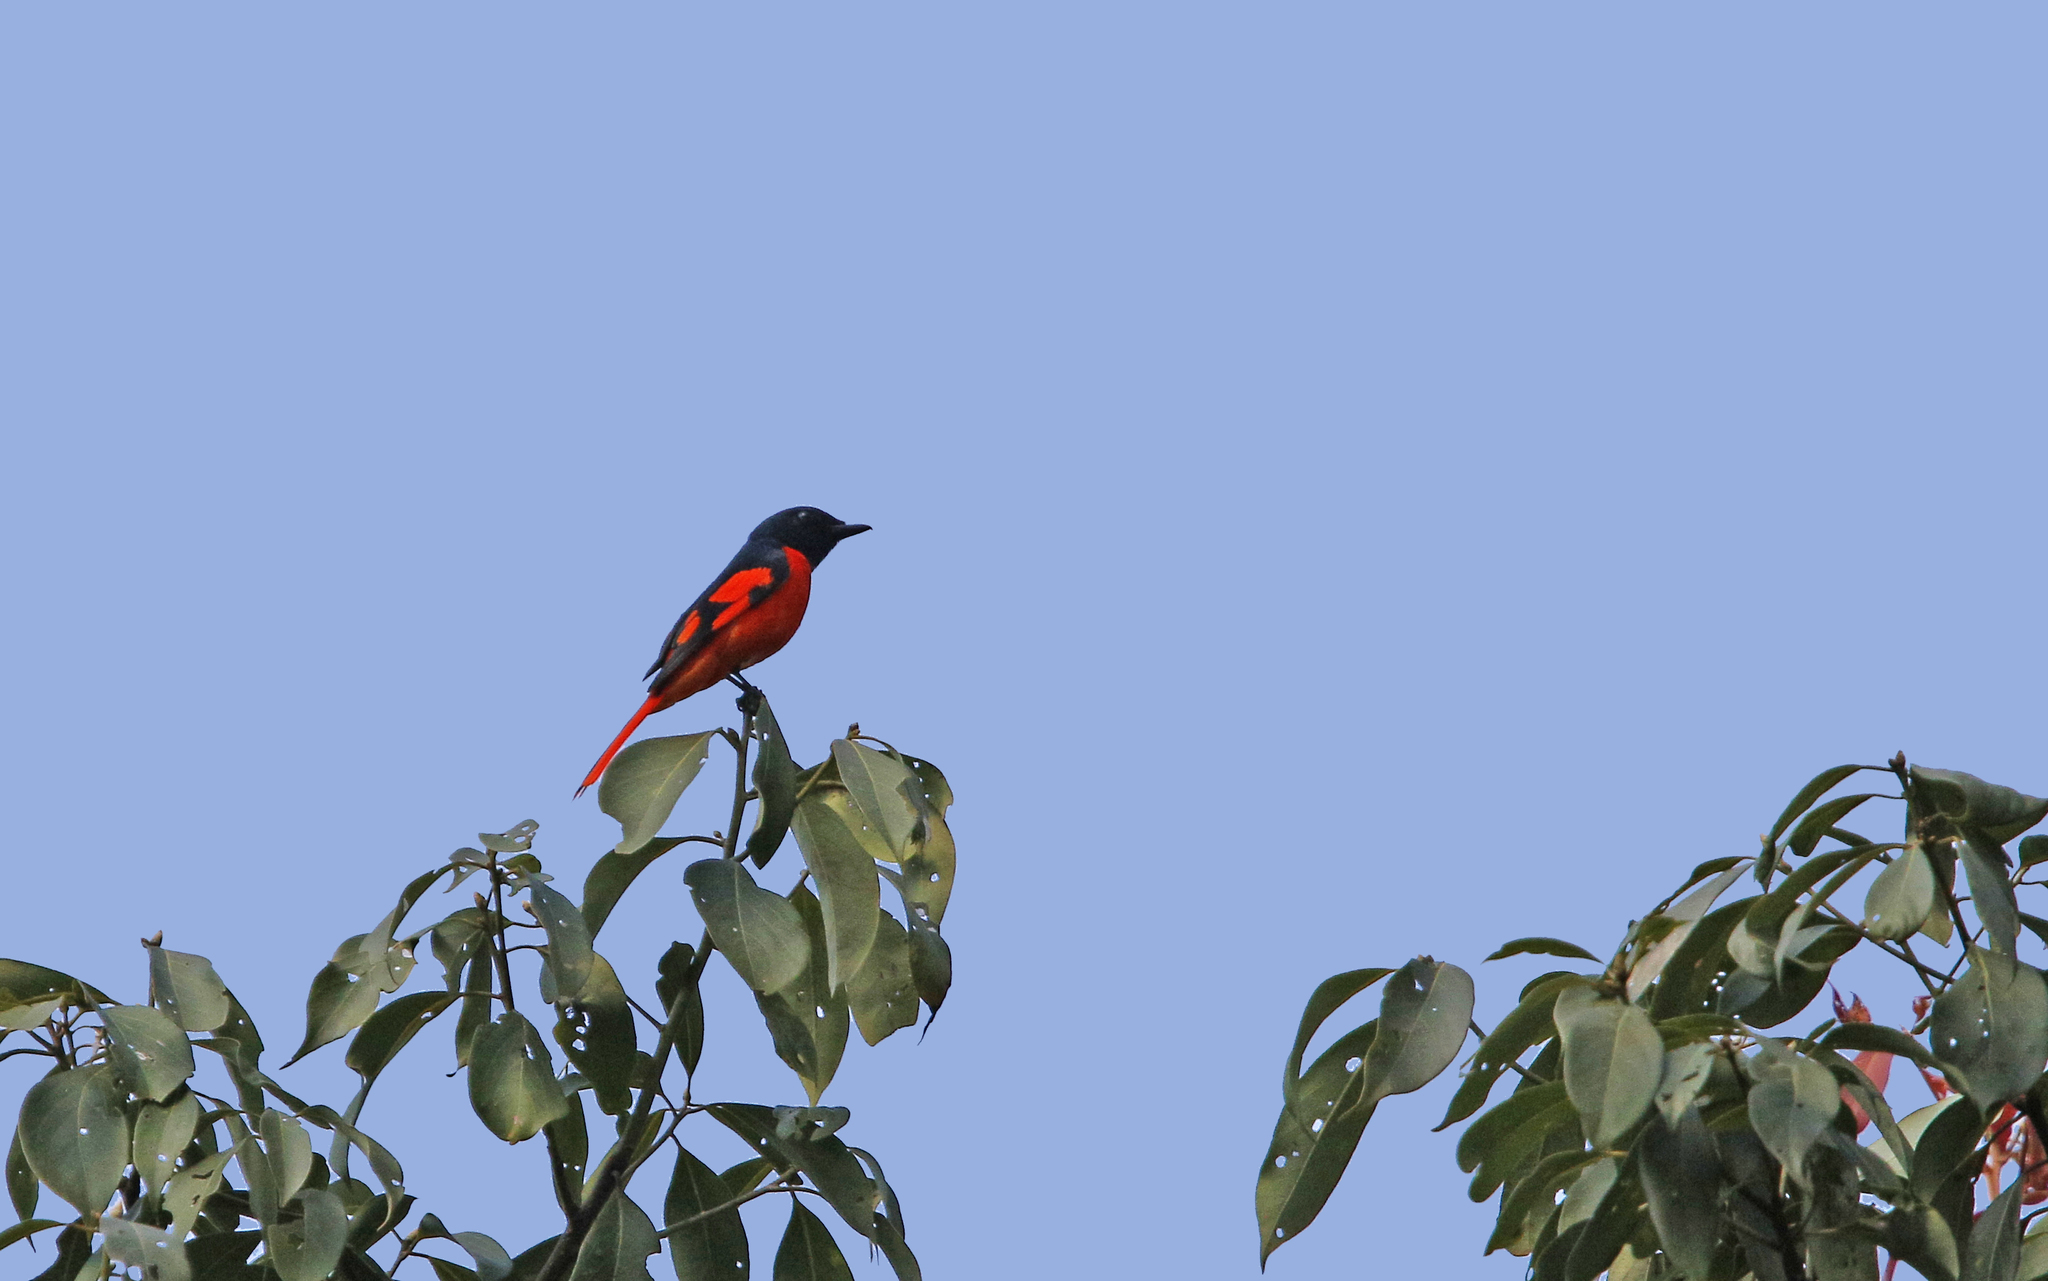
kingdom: Animalia
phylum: Chordata
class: Aves
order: Passeriformes
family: Campephagidae
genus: Pericrocotus
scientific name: Pericrocotus speciosus
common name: Scarlet minivet
